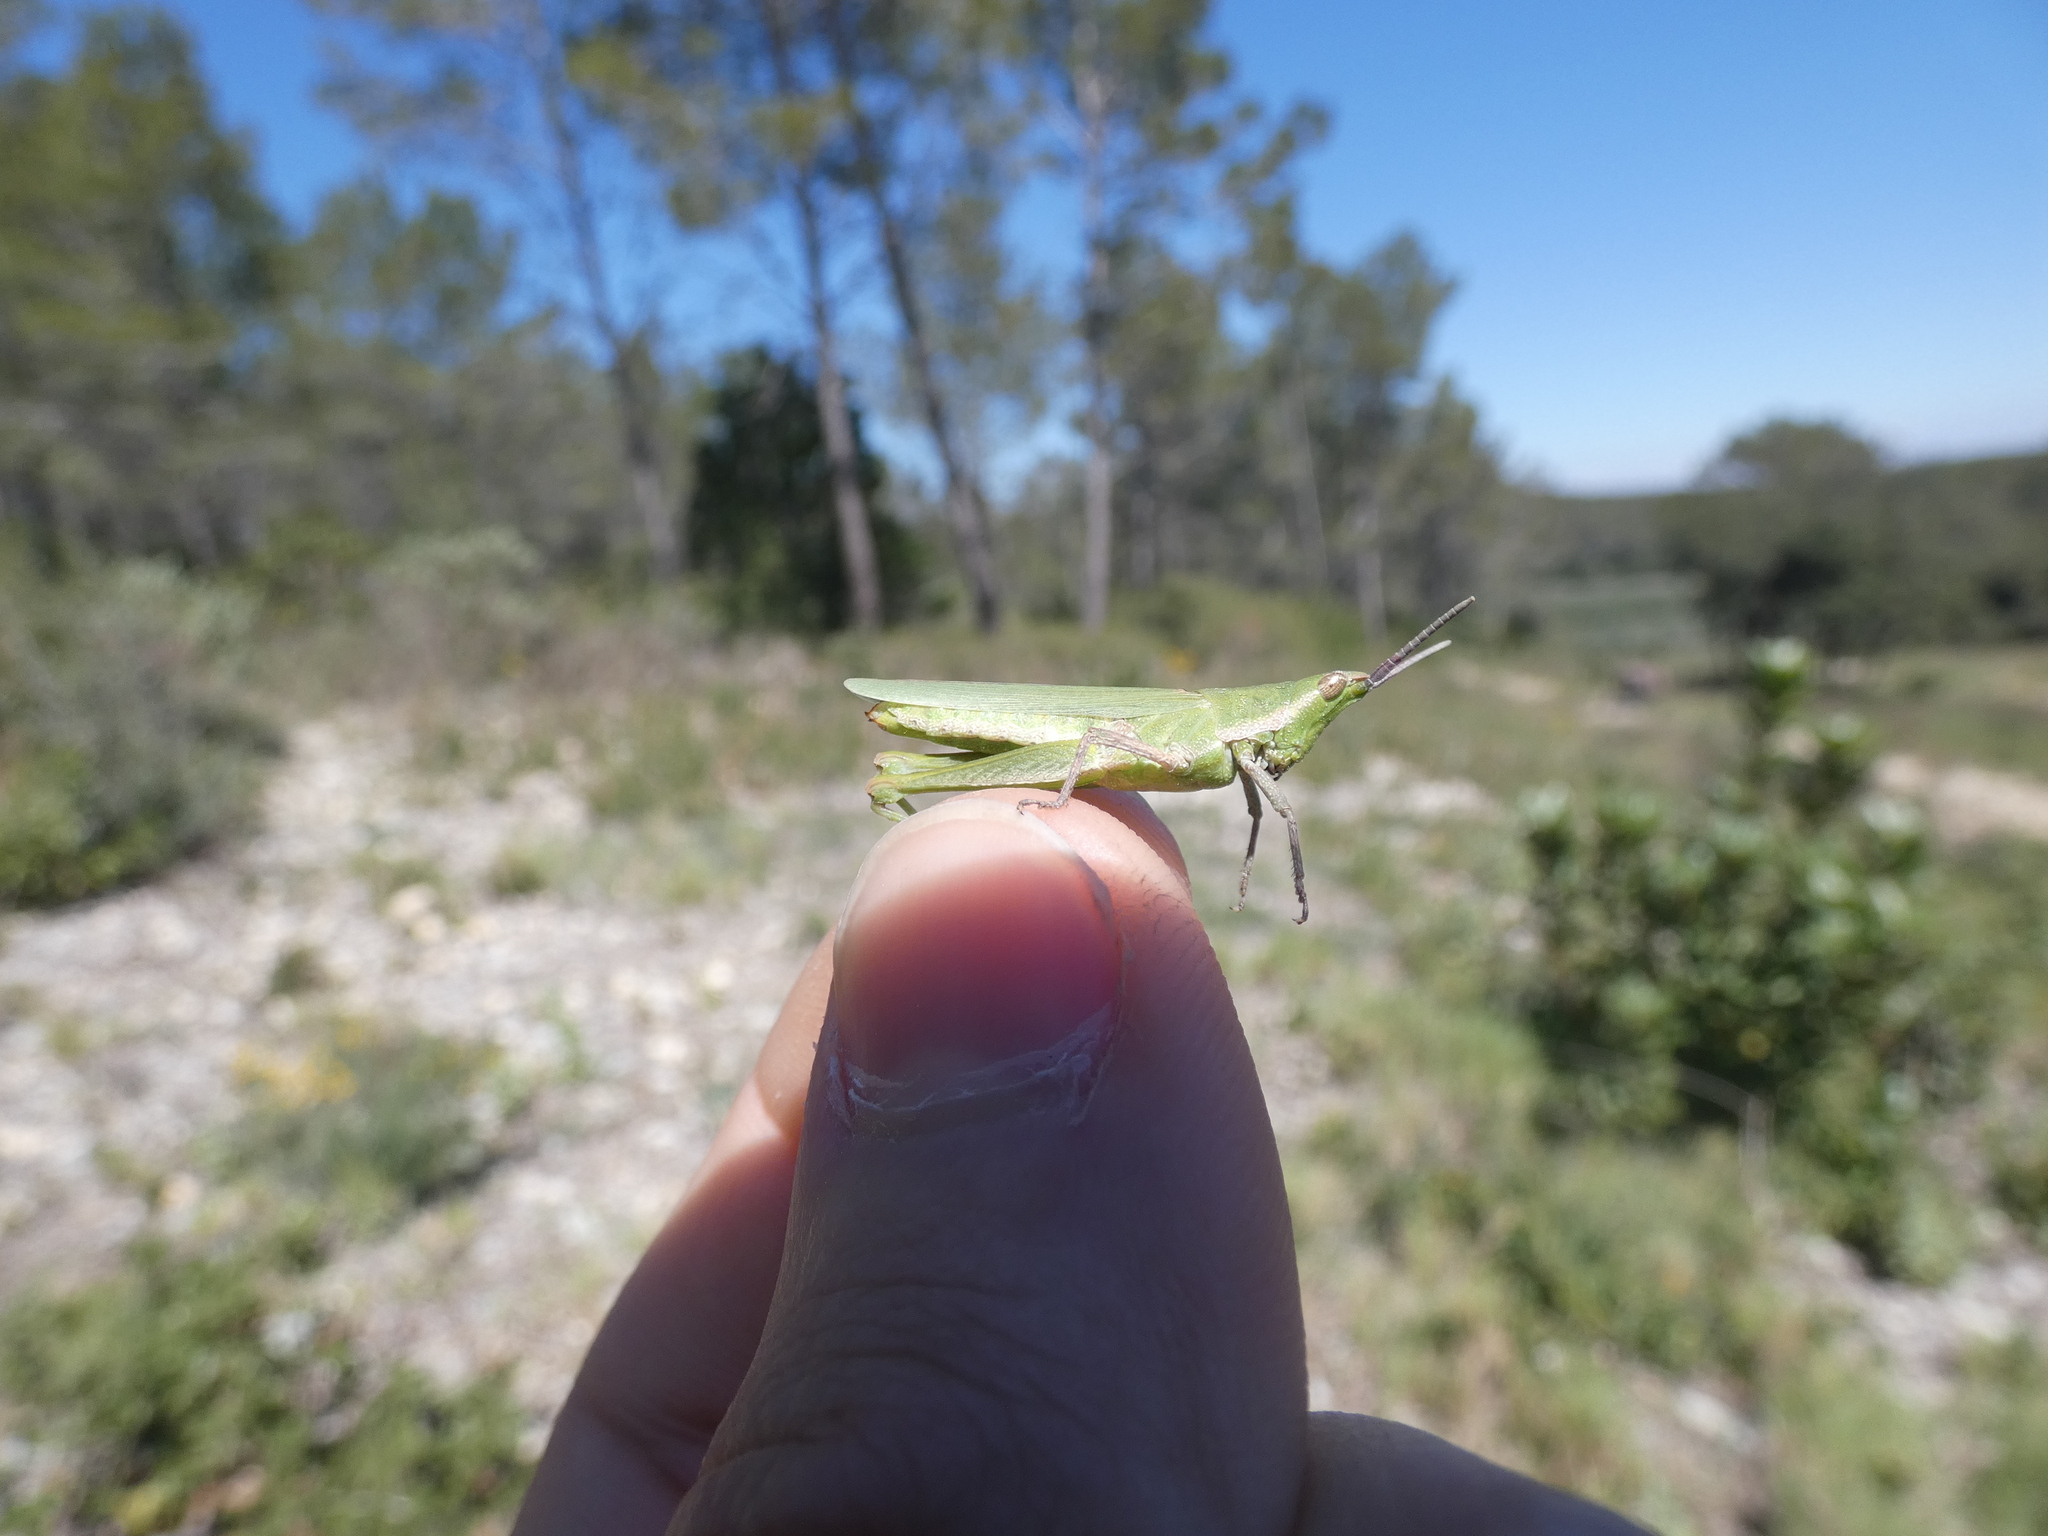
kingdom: Animalia
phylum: Arthropoda
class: Insecta
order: Orthoptera
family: Pyrgomorphidae
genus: Pyrgomorpha
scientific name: Pyrgomorpha conica
